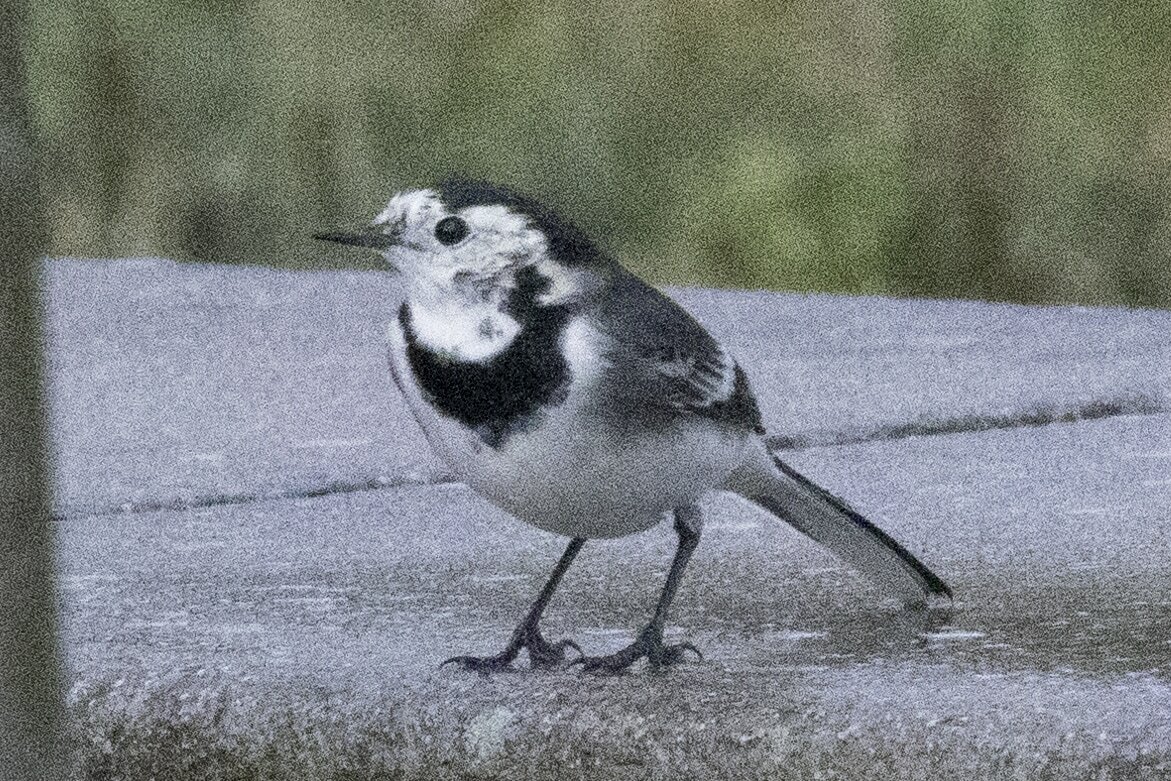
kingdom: Animalia
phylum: Chordata
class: Aves
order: Passeriformes
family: Motacillidae
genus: Motacilla
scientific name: Motacilla alba
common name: White wagtail
